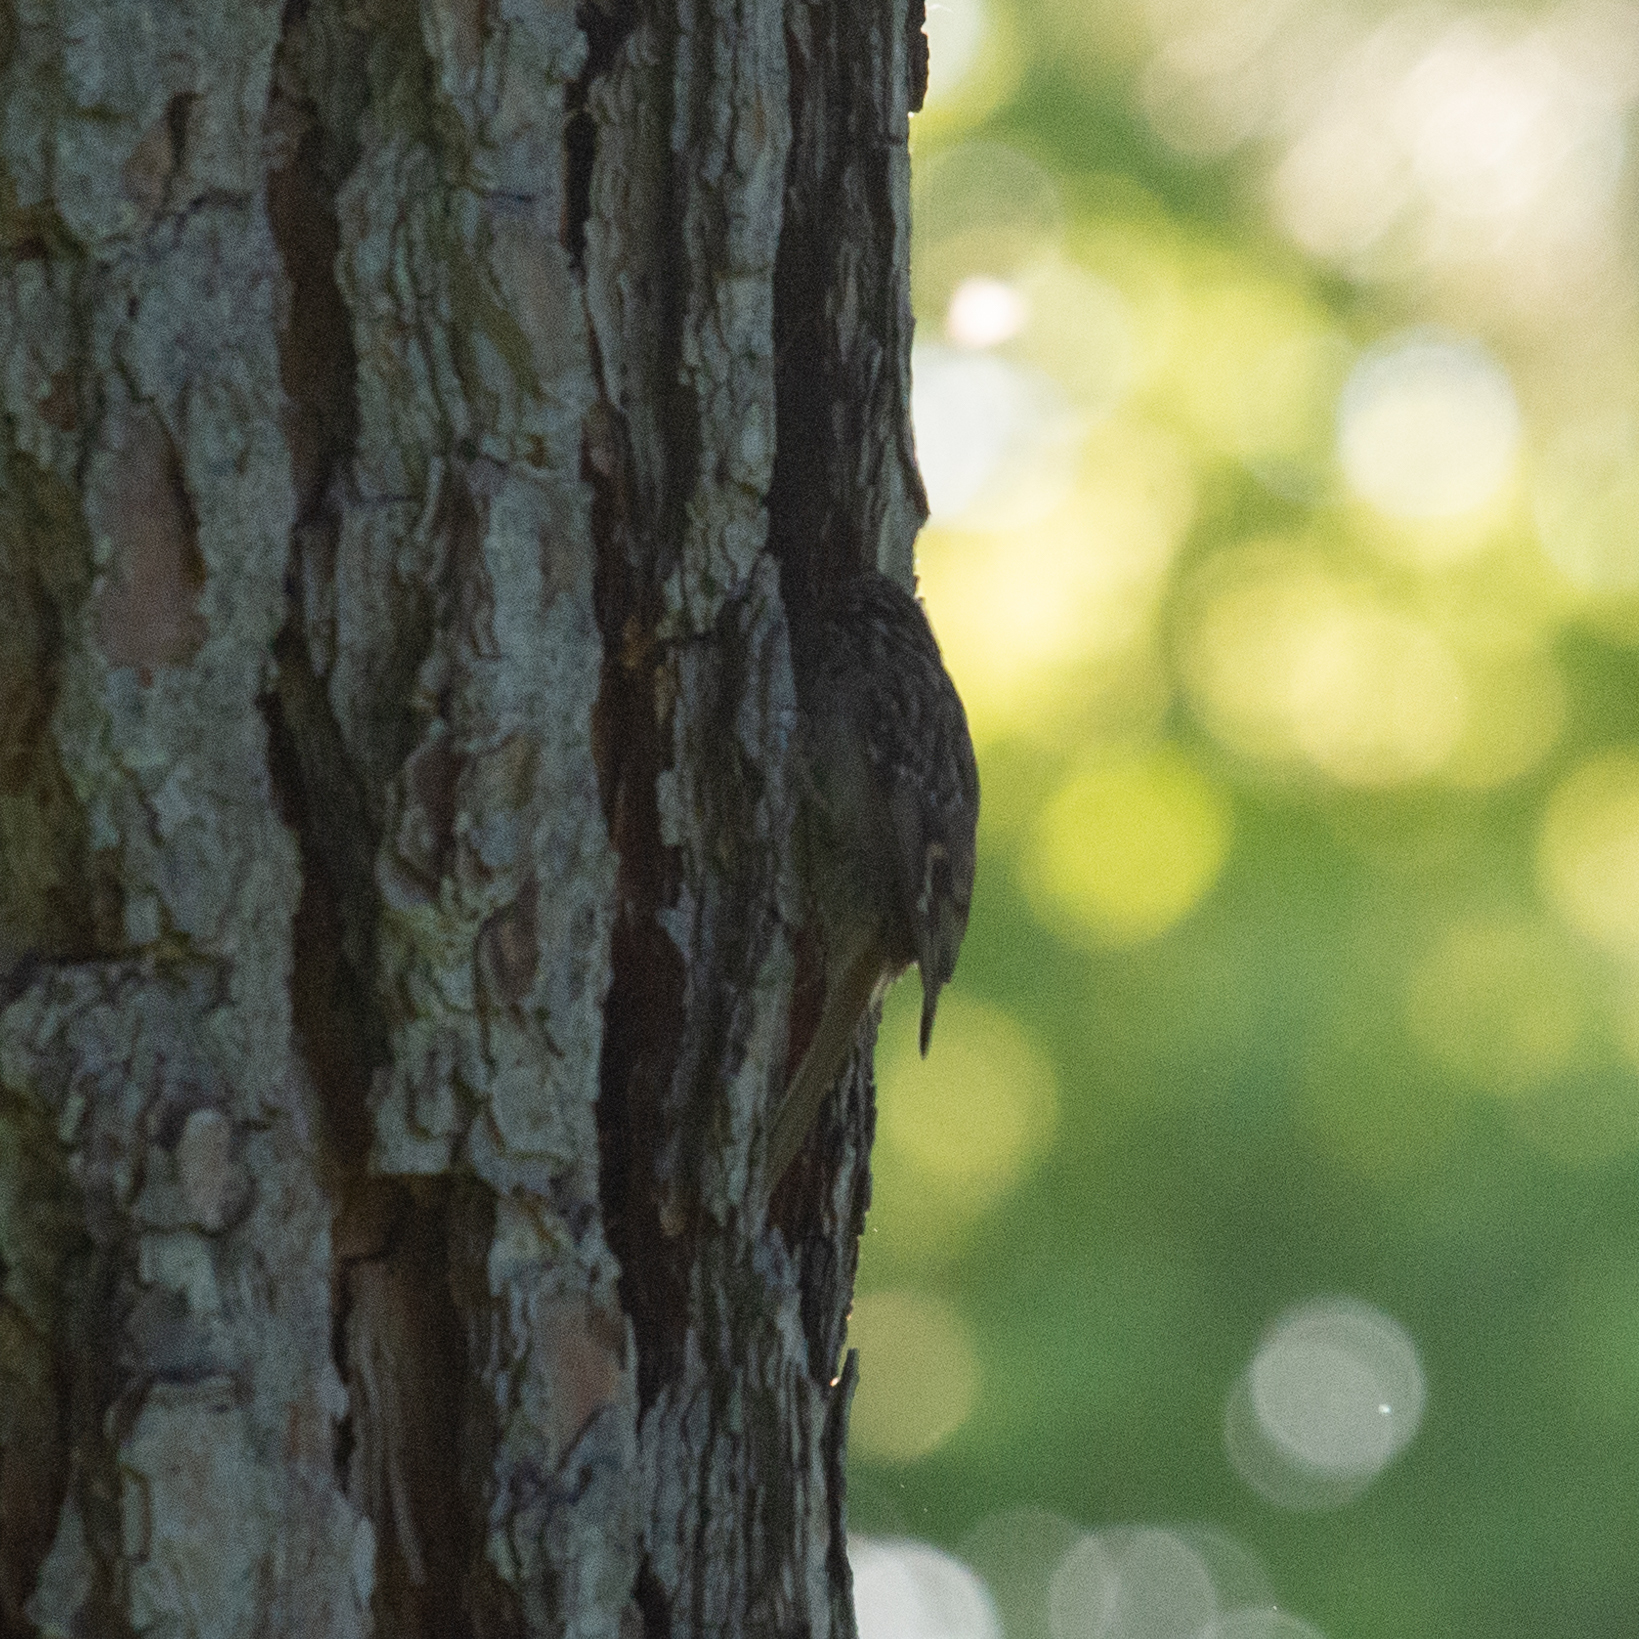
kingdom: Animalia
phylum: Chordata
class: Aves
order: Passeriformes
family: Certhiidae
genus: Certhia
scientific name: Certhia brachydactyla
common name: Short-toed treecreeper
